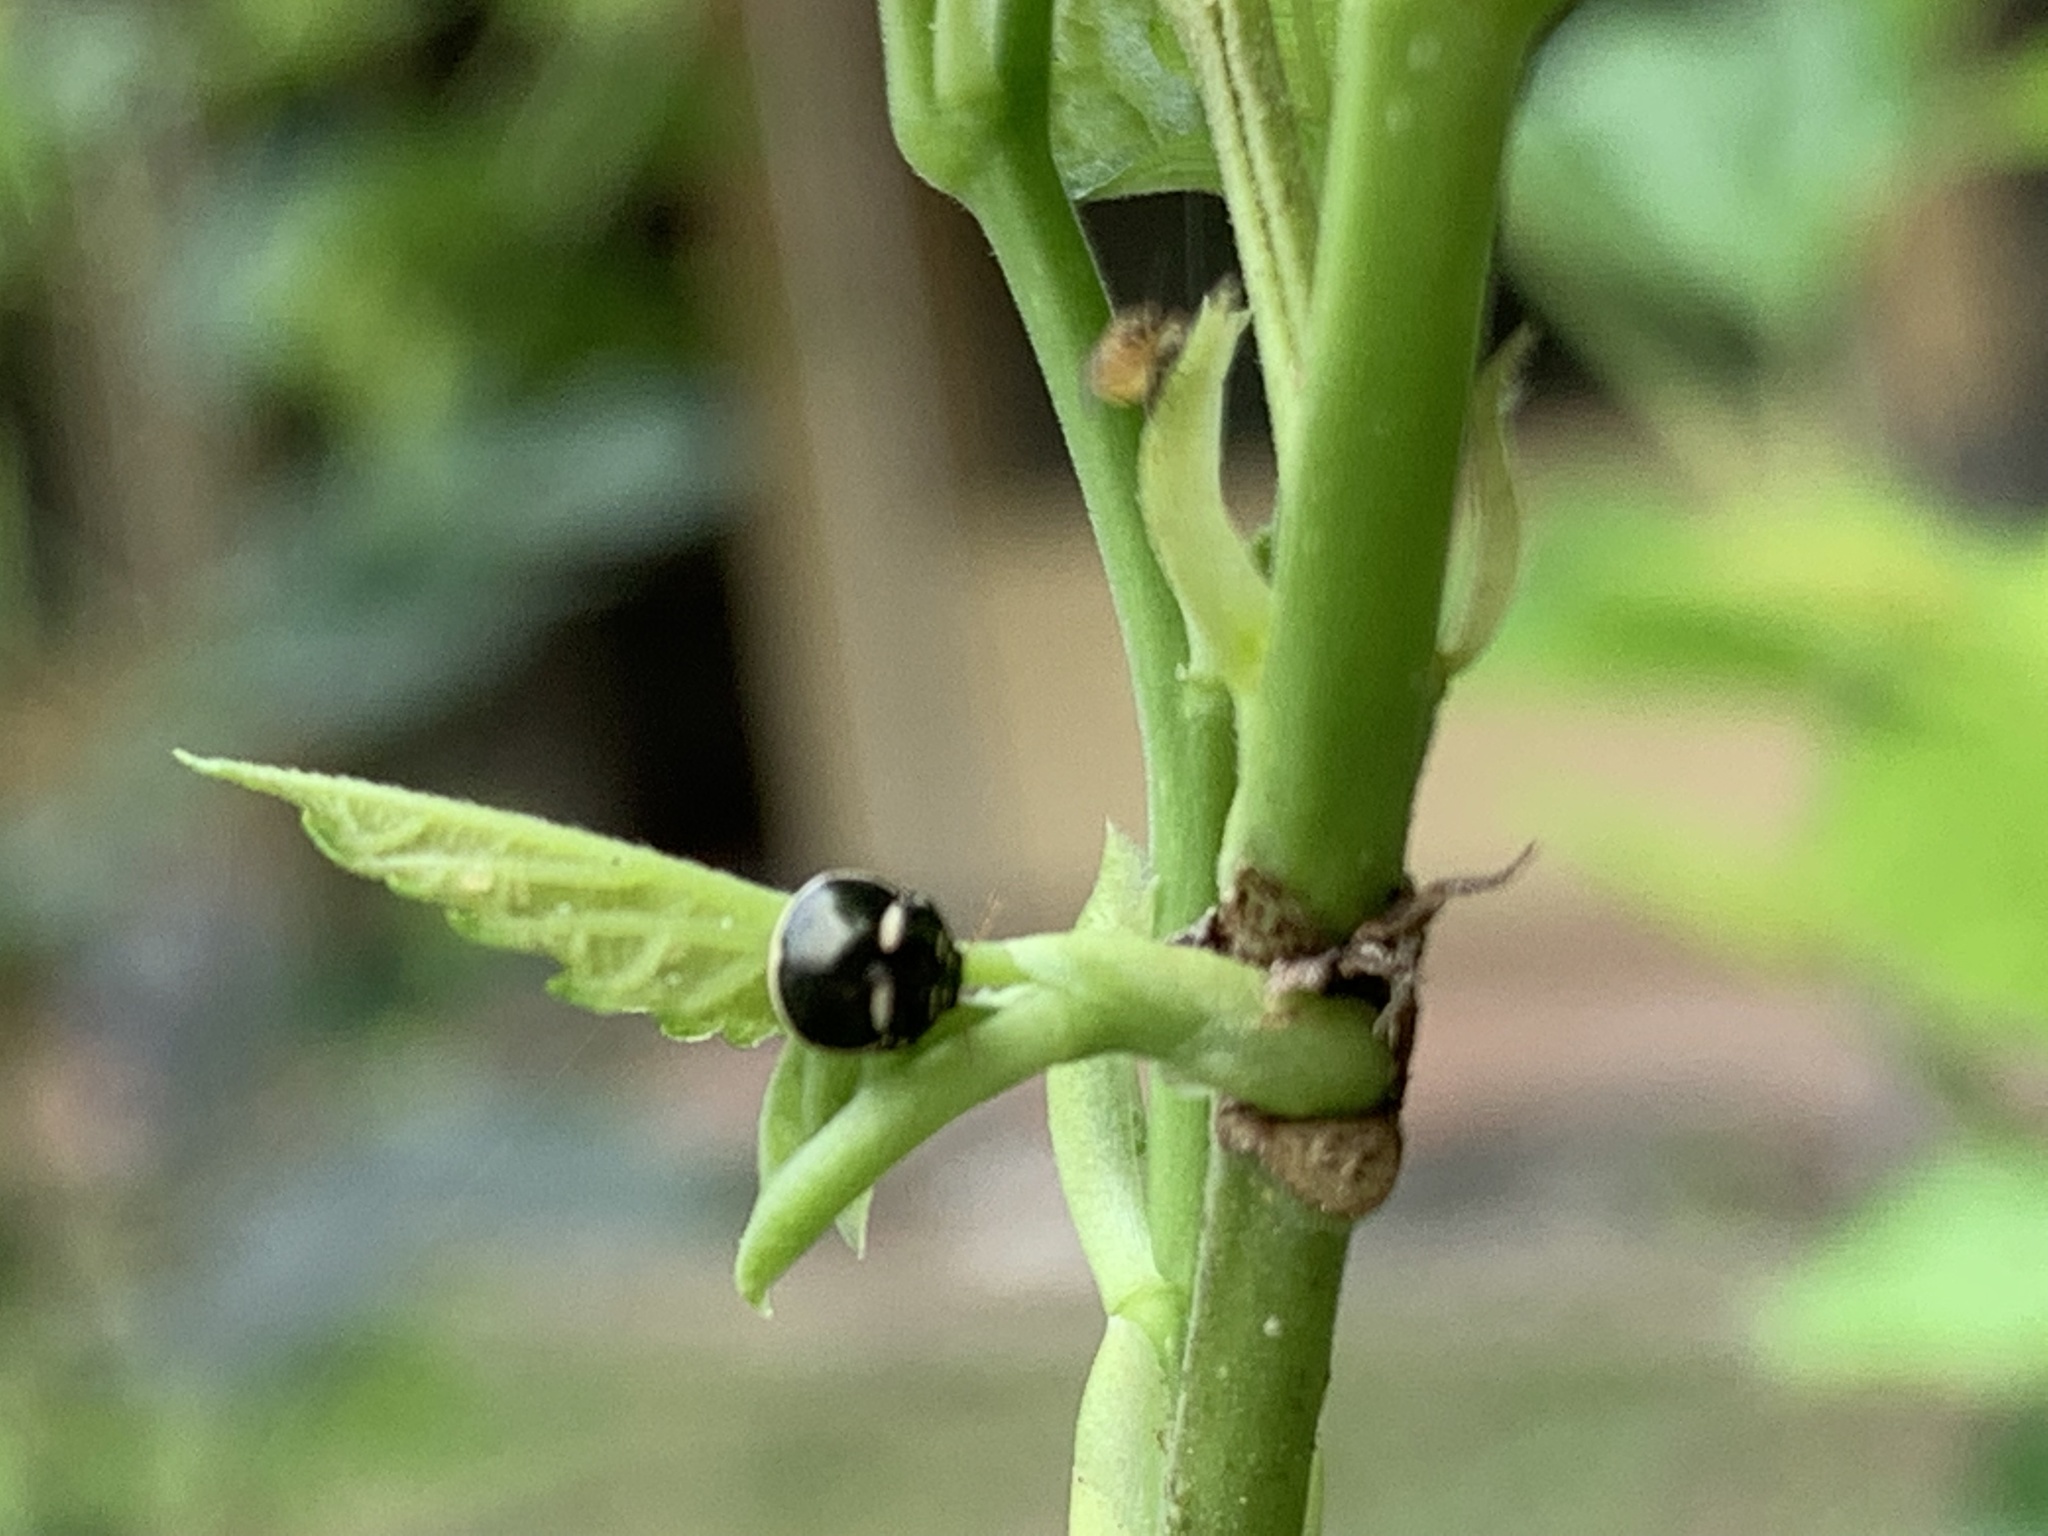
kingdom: Animalia
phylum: Arthropoda
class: Insecta
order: Hemiptera
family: Plataspidae
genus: Coptosoma
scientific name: Coptosoma variegata
